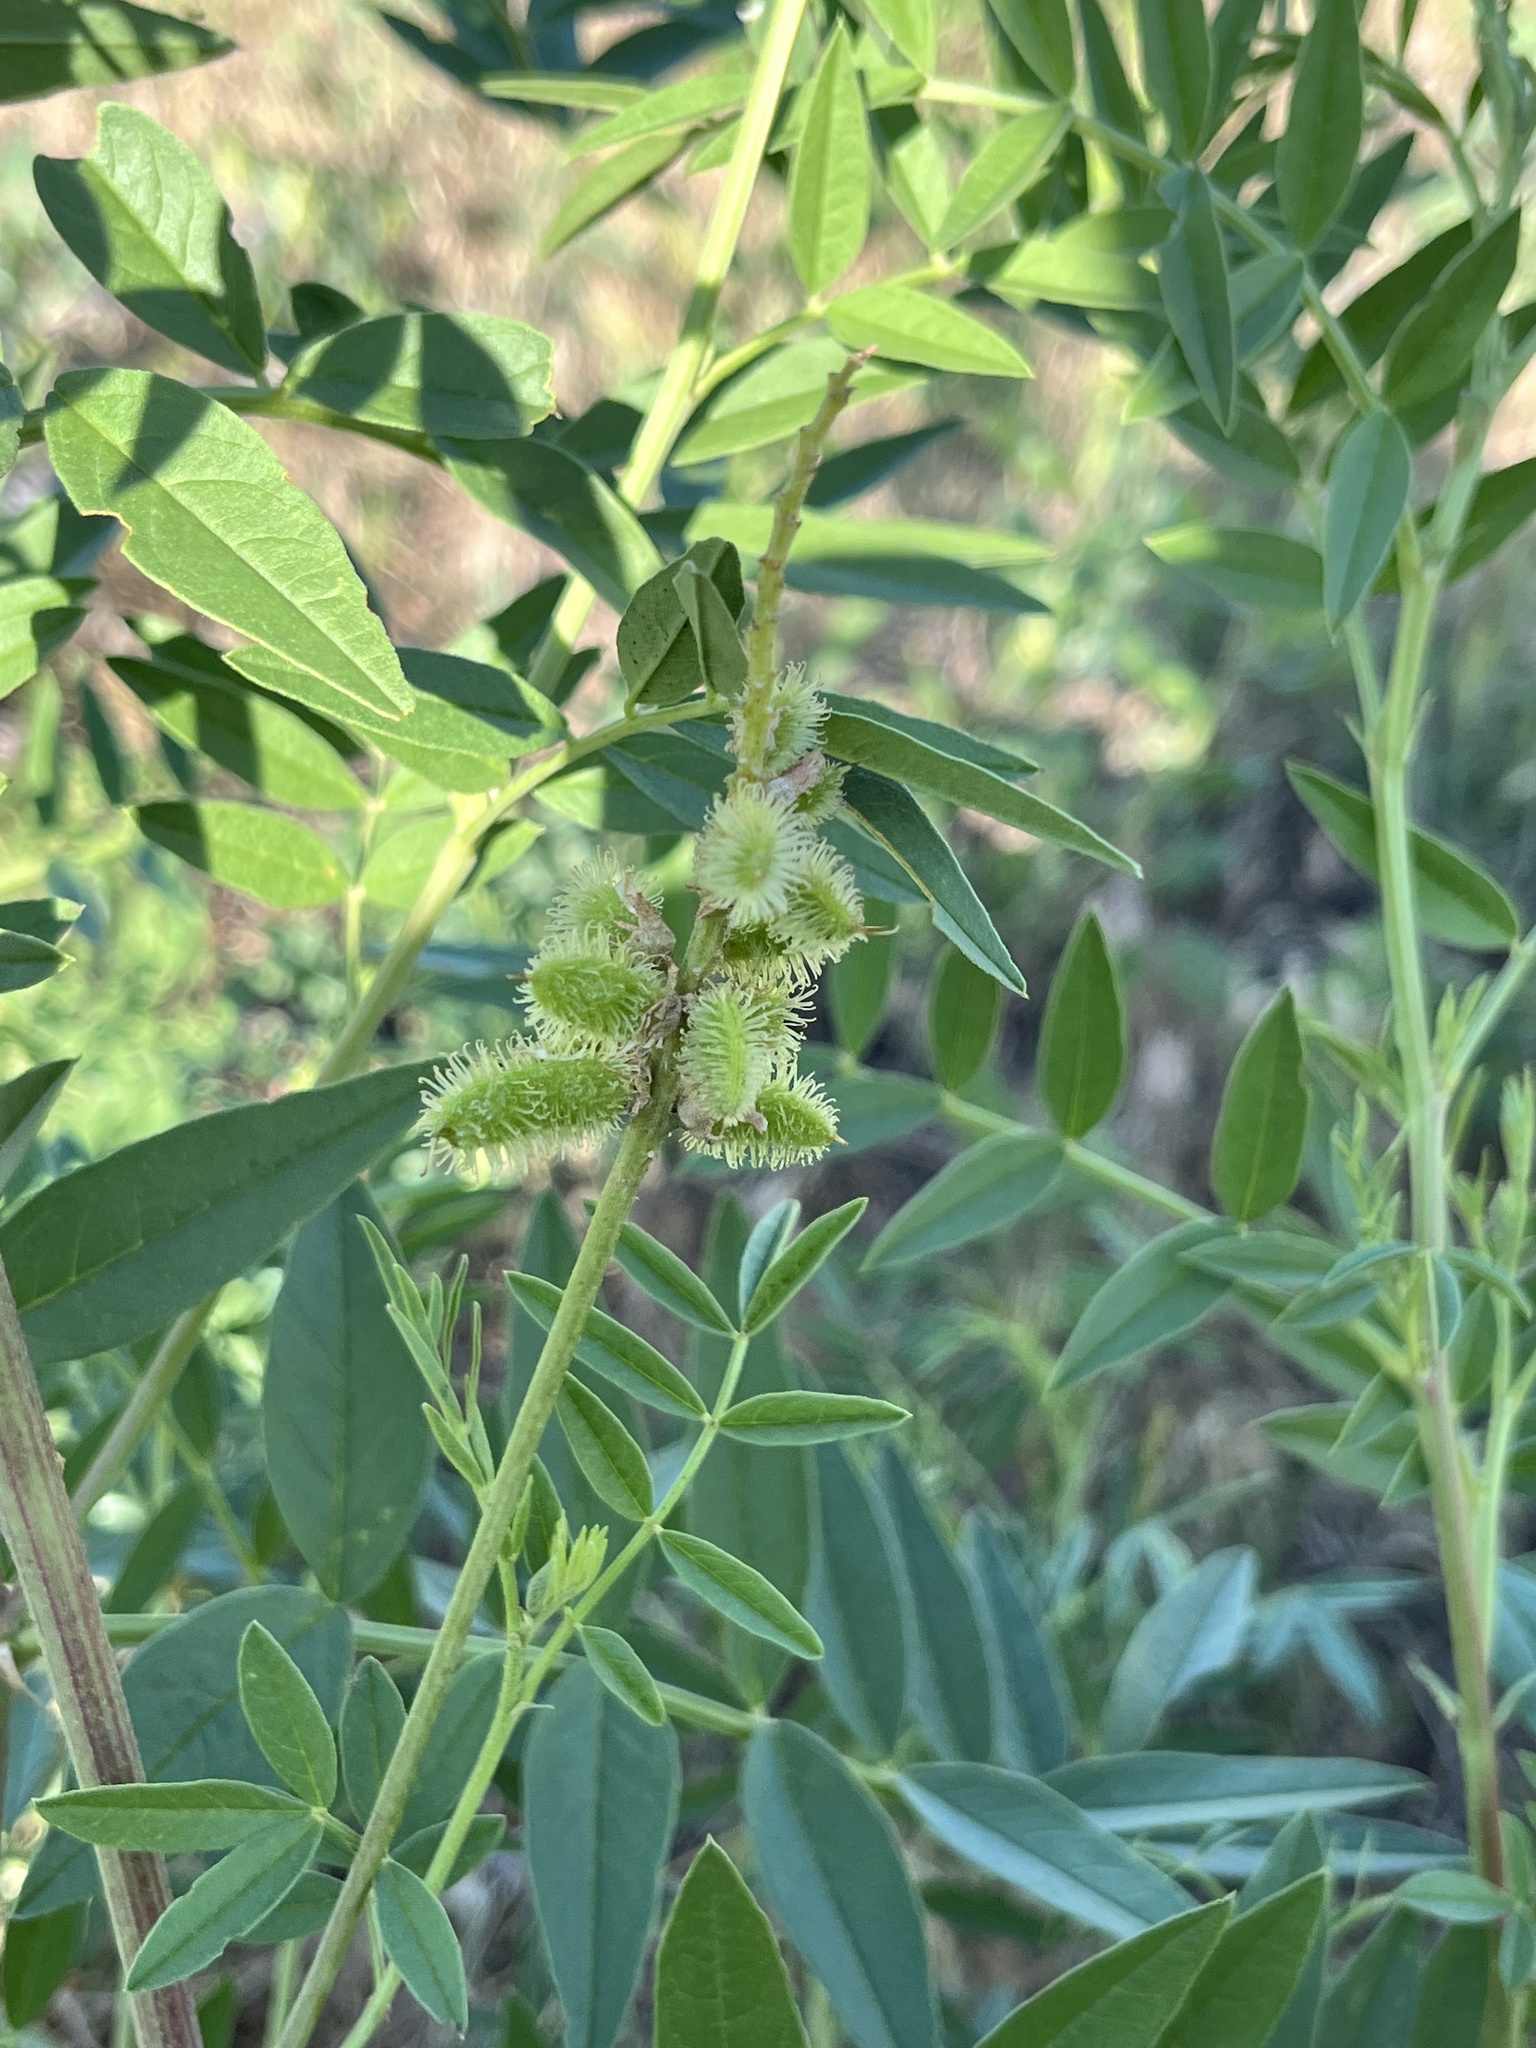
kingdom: Plantae
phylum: Tracheophyta
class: Magnoliopsida
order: Fabales
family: Fabaceae
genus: Glycyrrhiza
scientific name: Glycyrrhiza lepidota
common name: American liquorice
